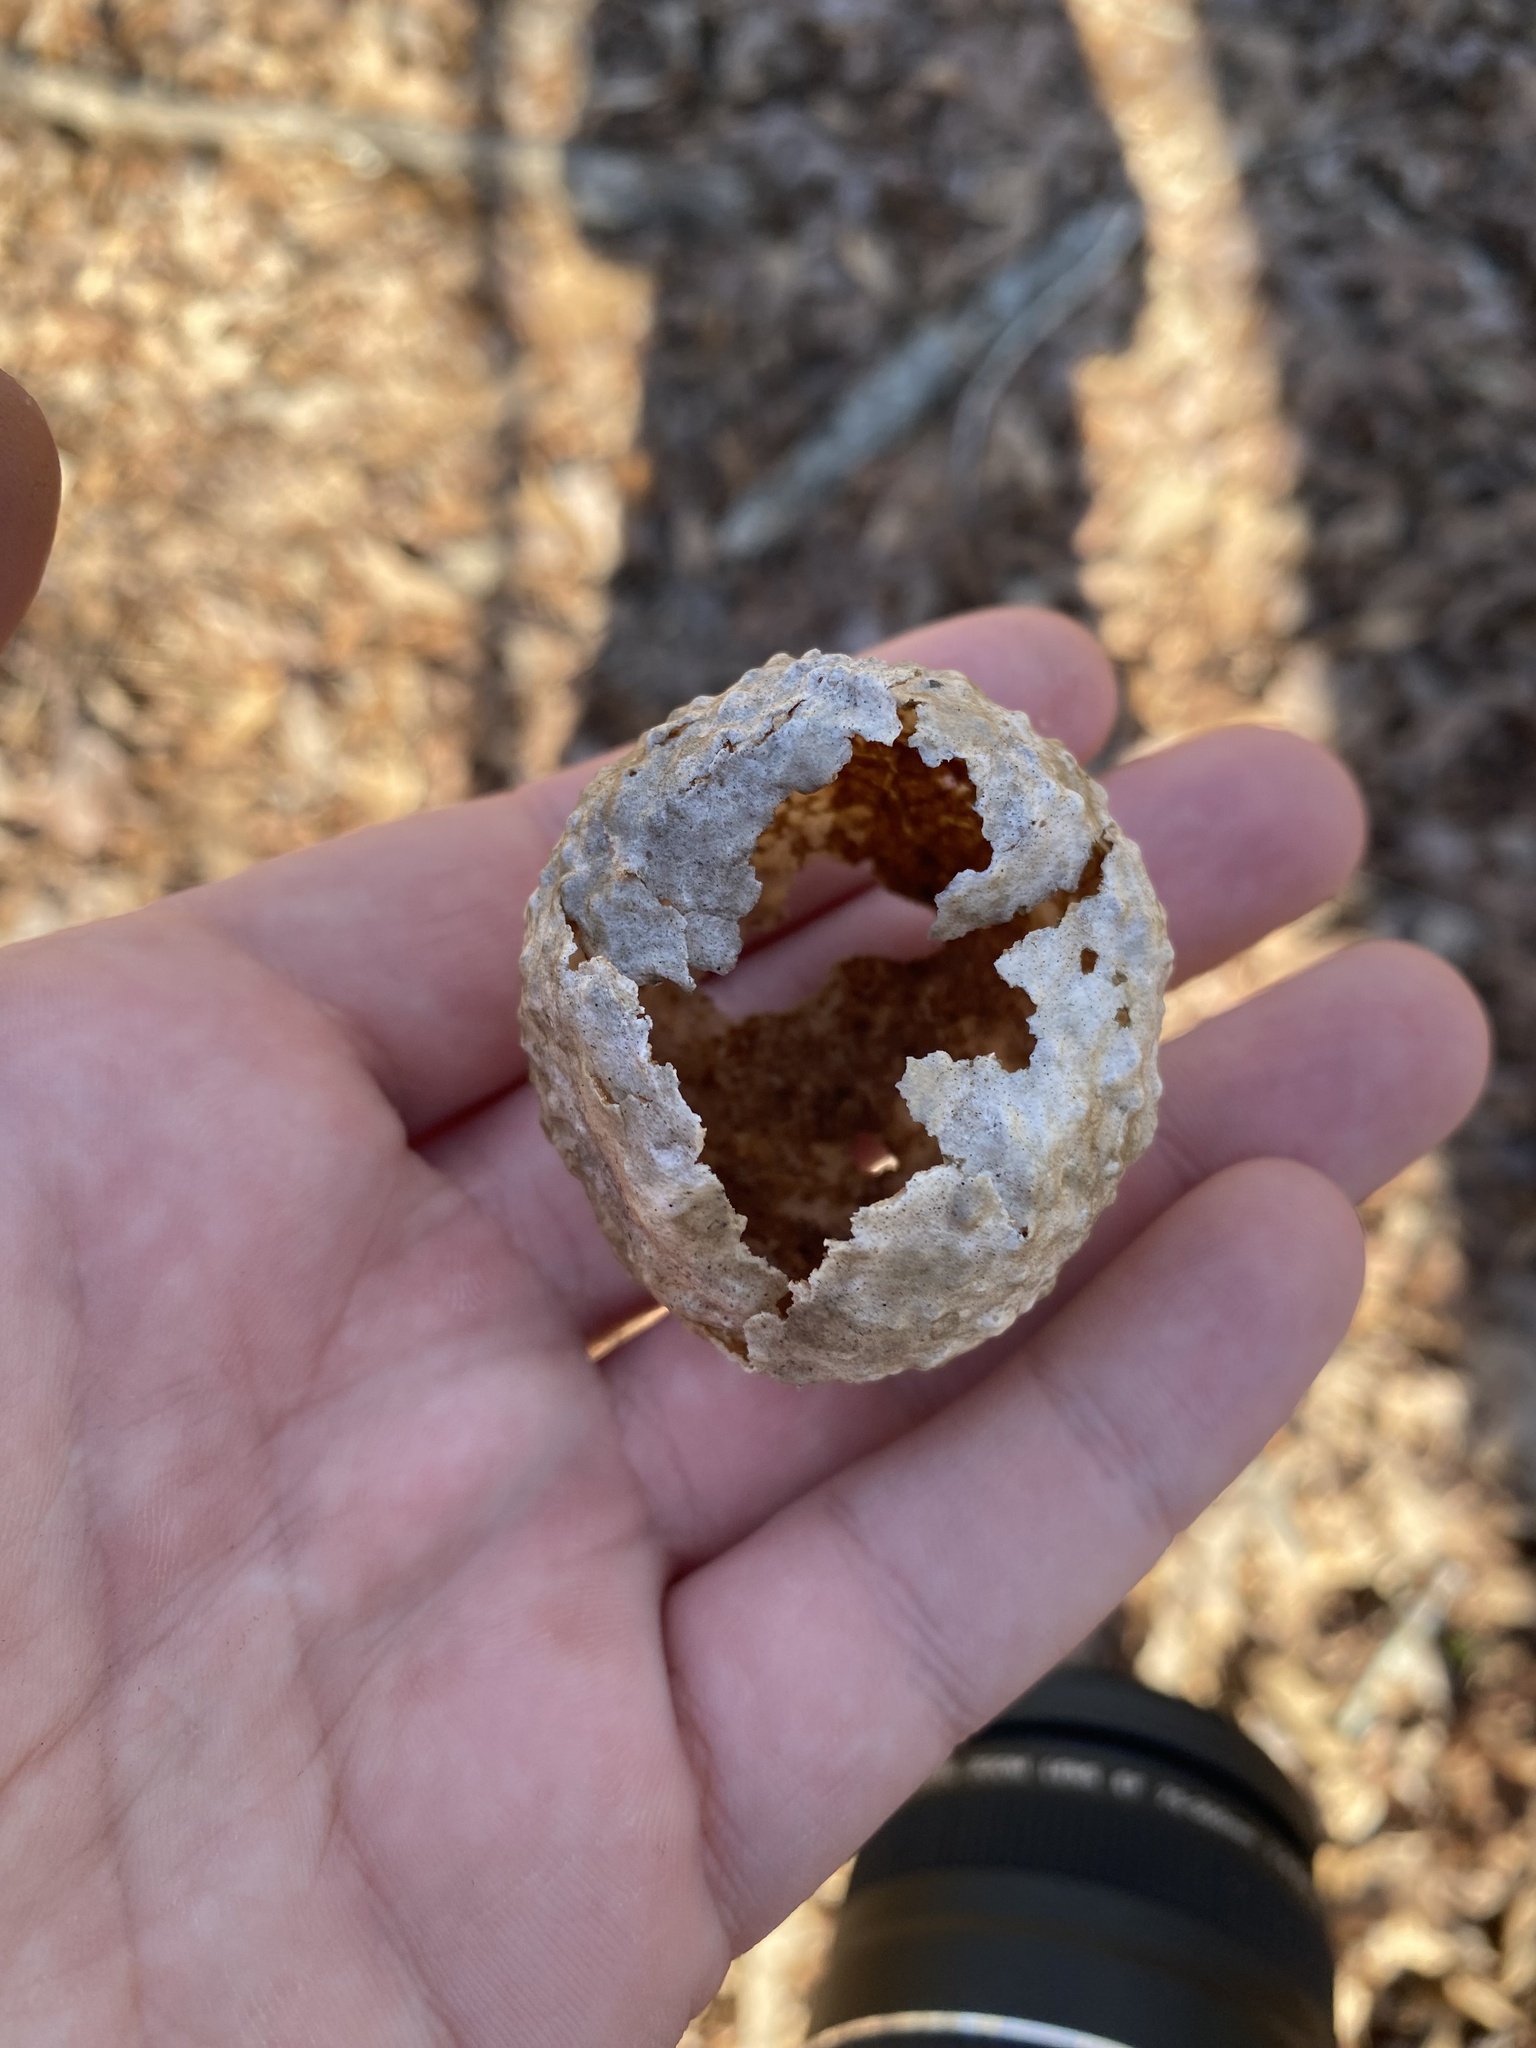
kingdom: Animalia
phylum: Arthropoda
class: Insecta
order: Hymenoptera
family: Cynipidae
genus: Amphibolips
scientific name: Amphibolips
